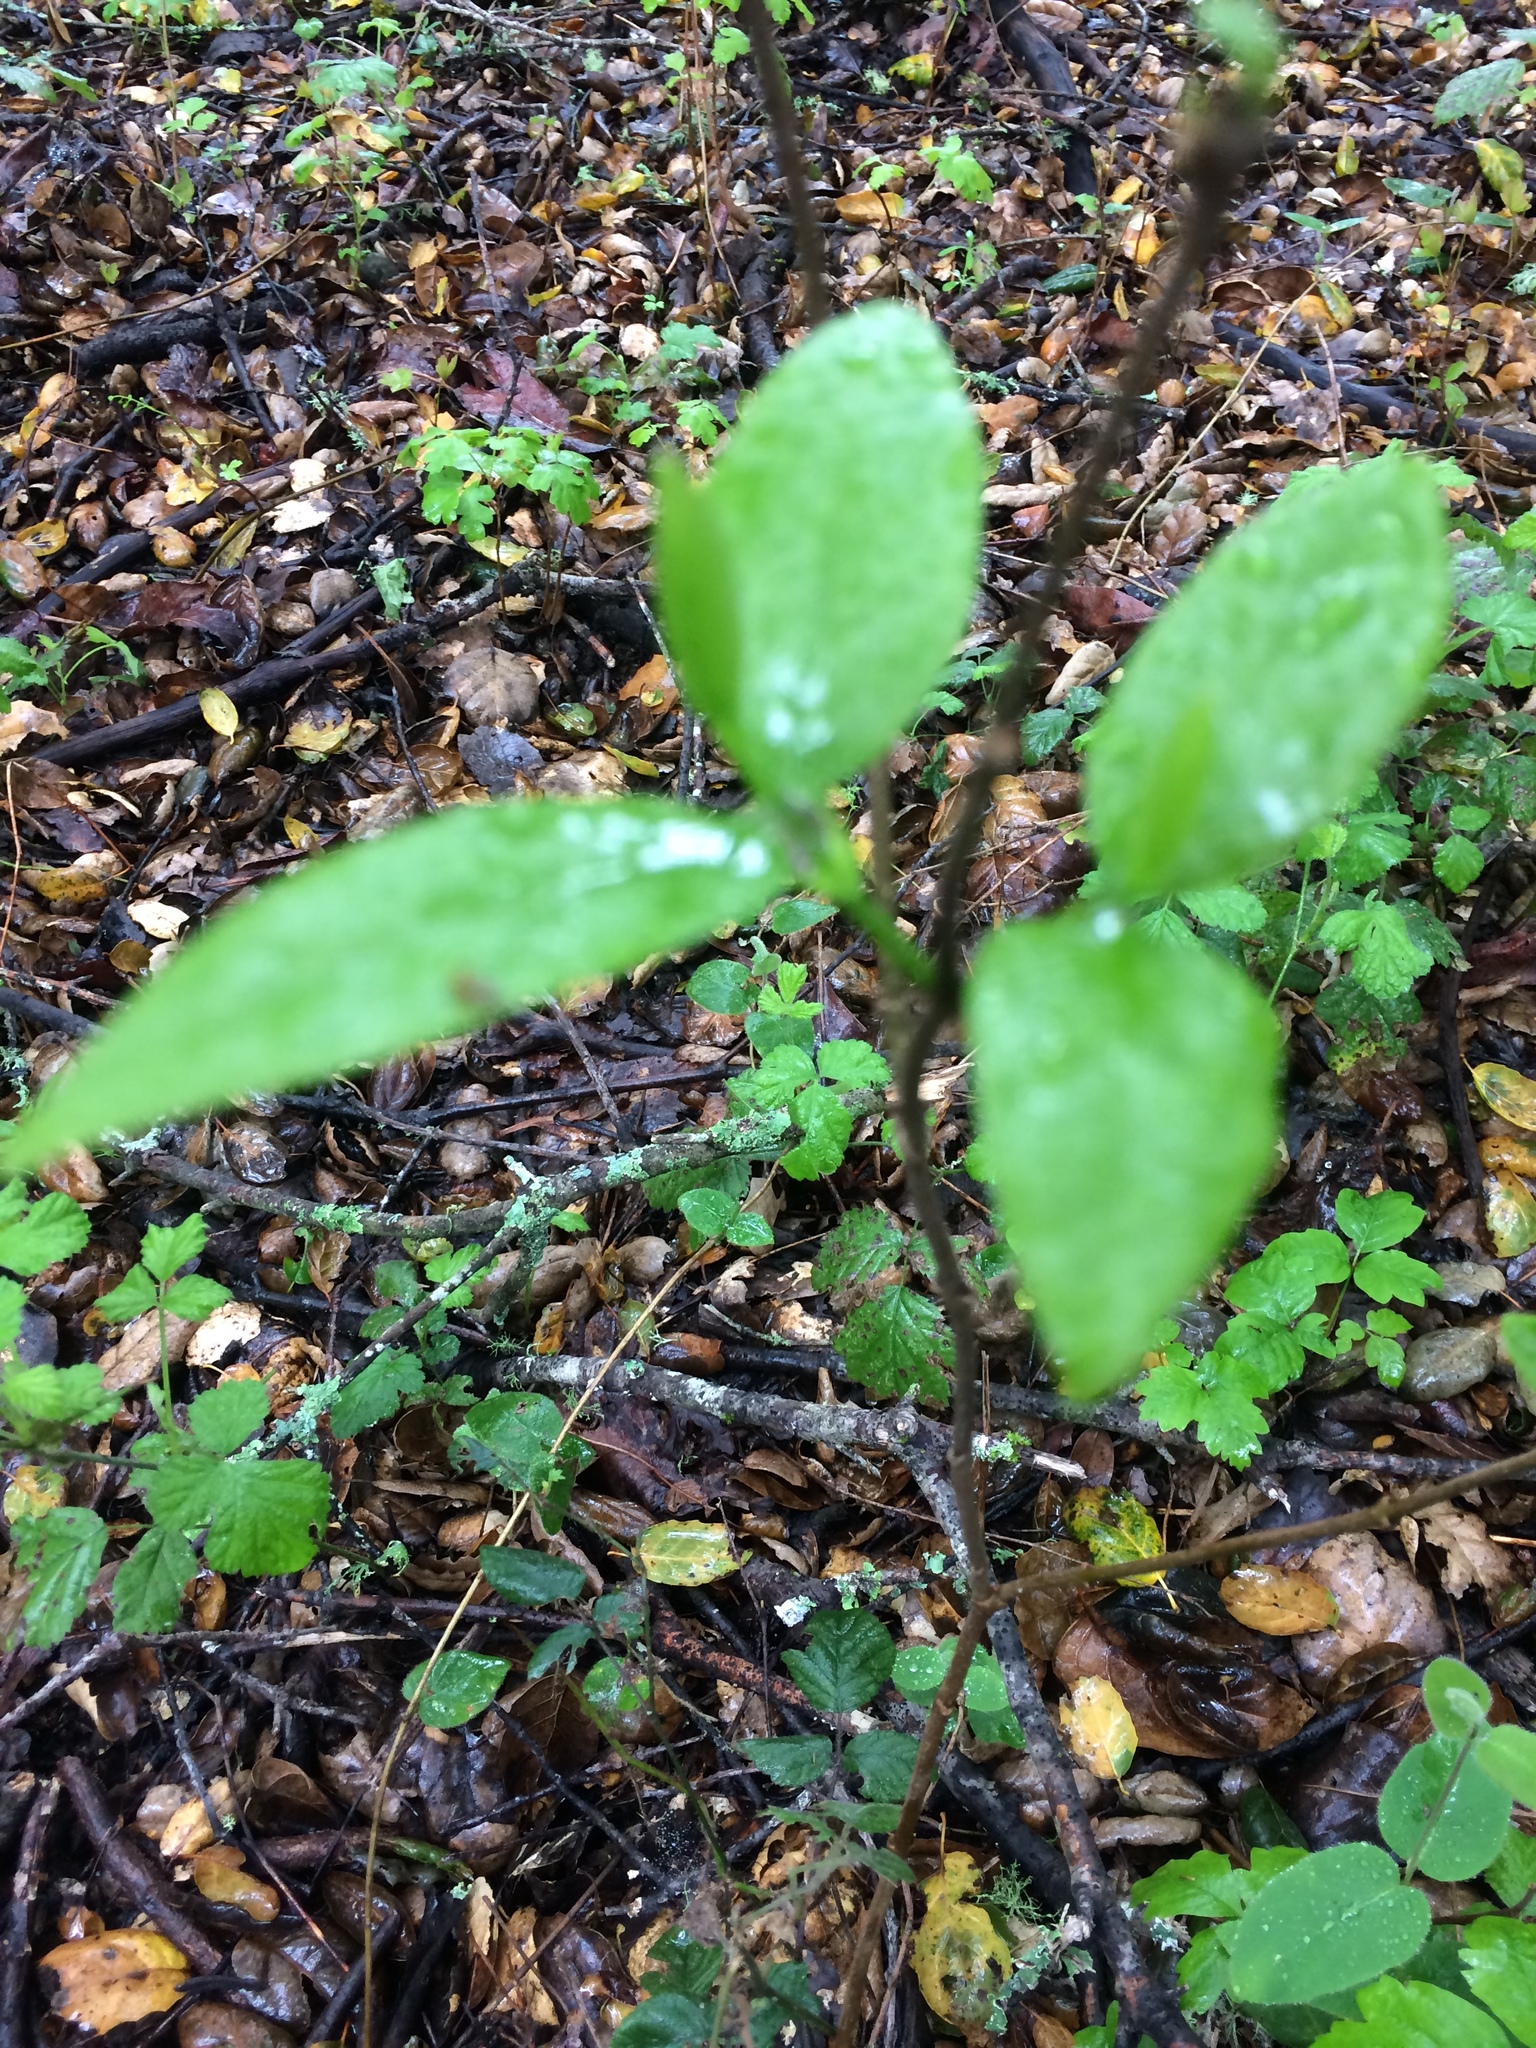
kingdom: Plantae
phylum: Tracheophyta
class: Magnoliopsida
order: Laurales
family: Calycanthaceae
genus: Calycanthus
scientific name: Calycanthus occidentalis
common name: California spicebush
